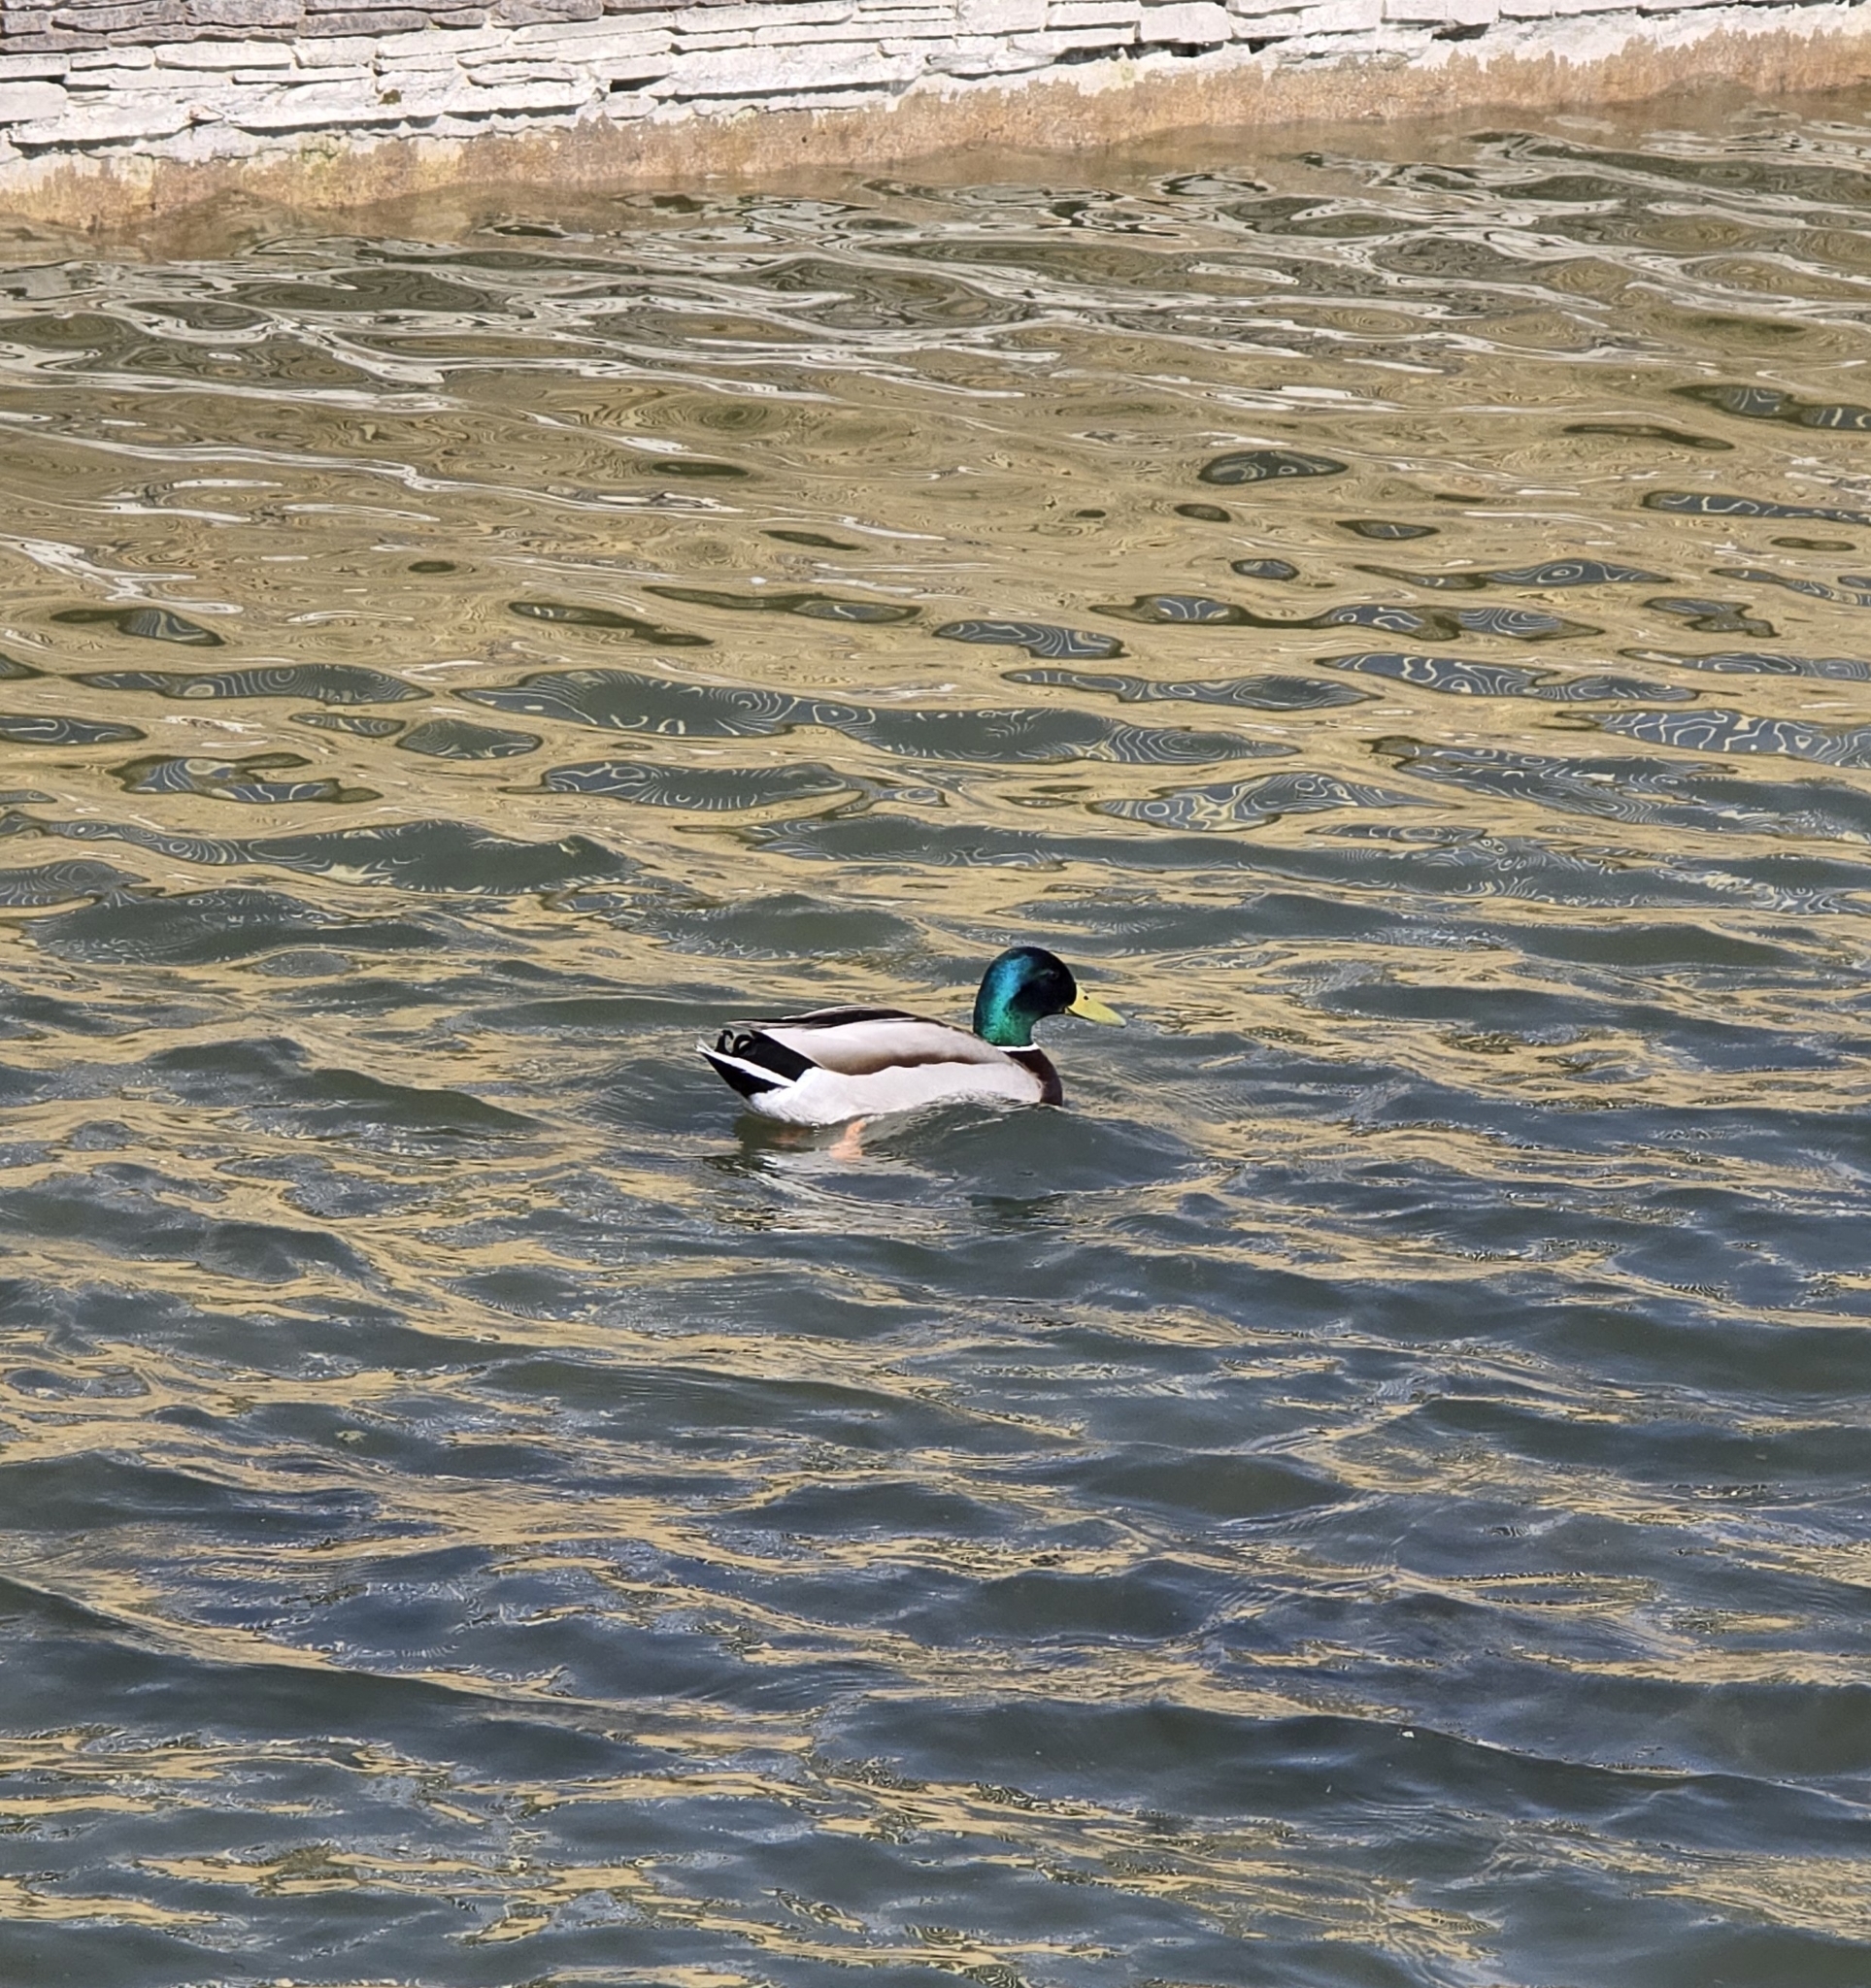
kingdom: Animalia
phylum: Chordata
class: Aves
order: Anseriformes
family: Anatidae
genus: Anas
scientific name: Anas platyrhynchos
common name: Mallard
